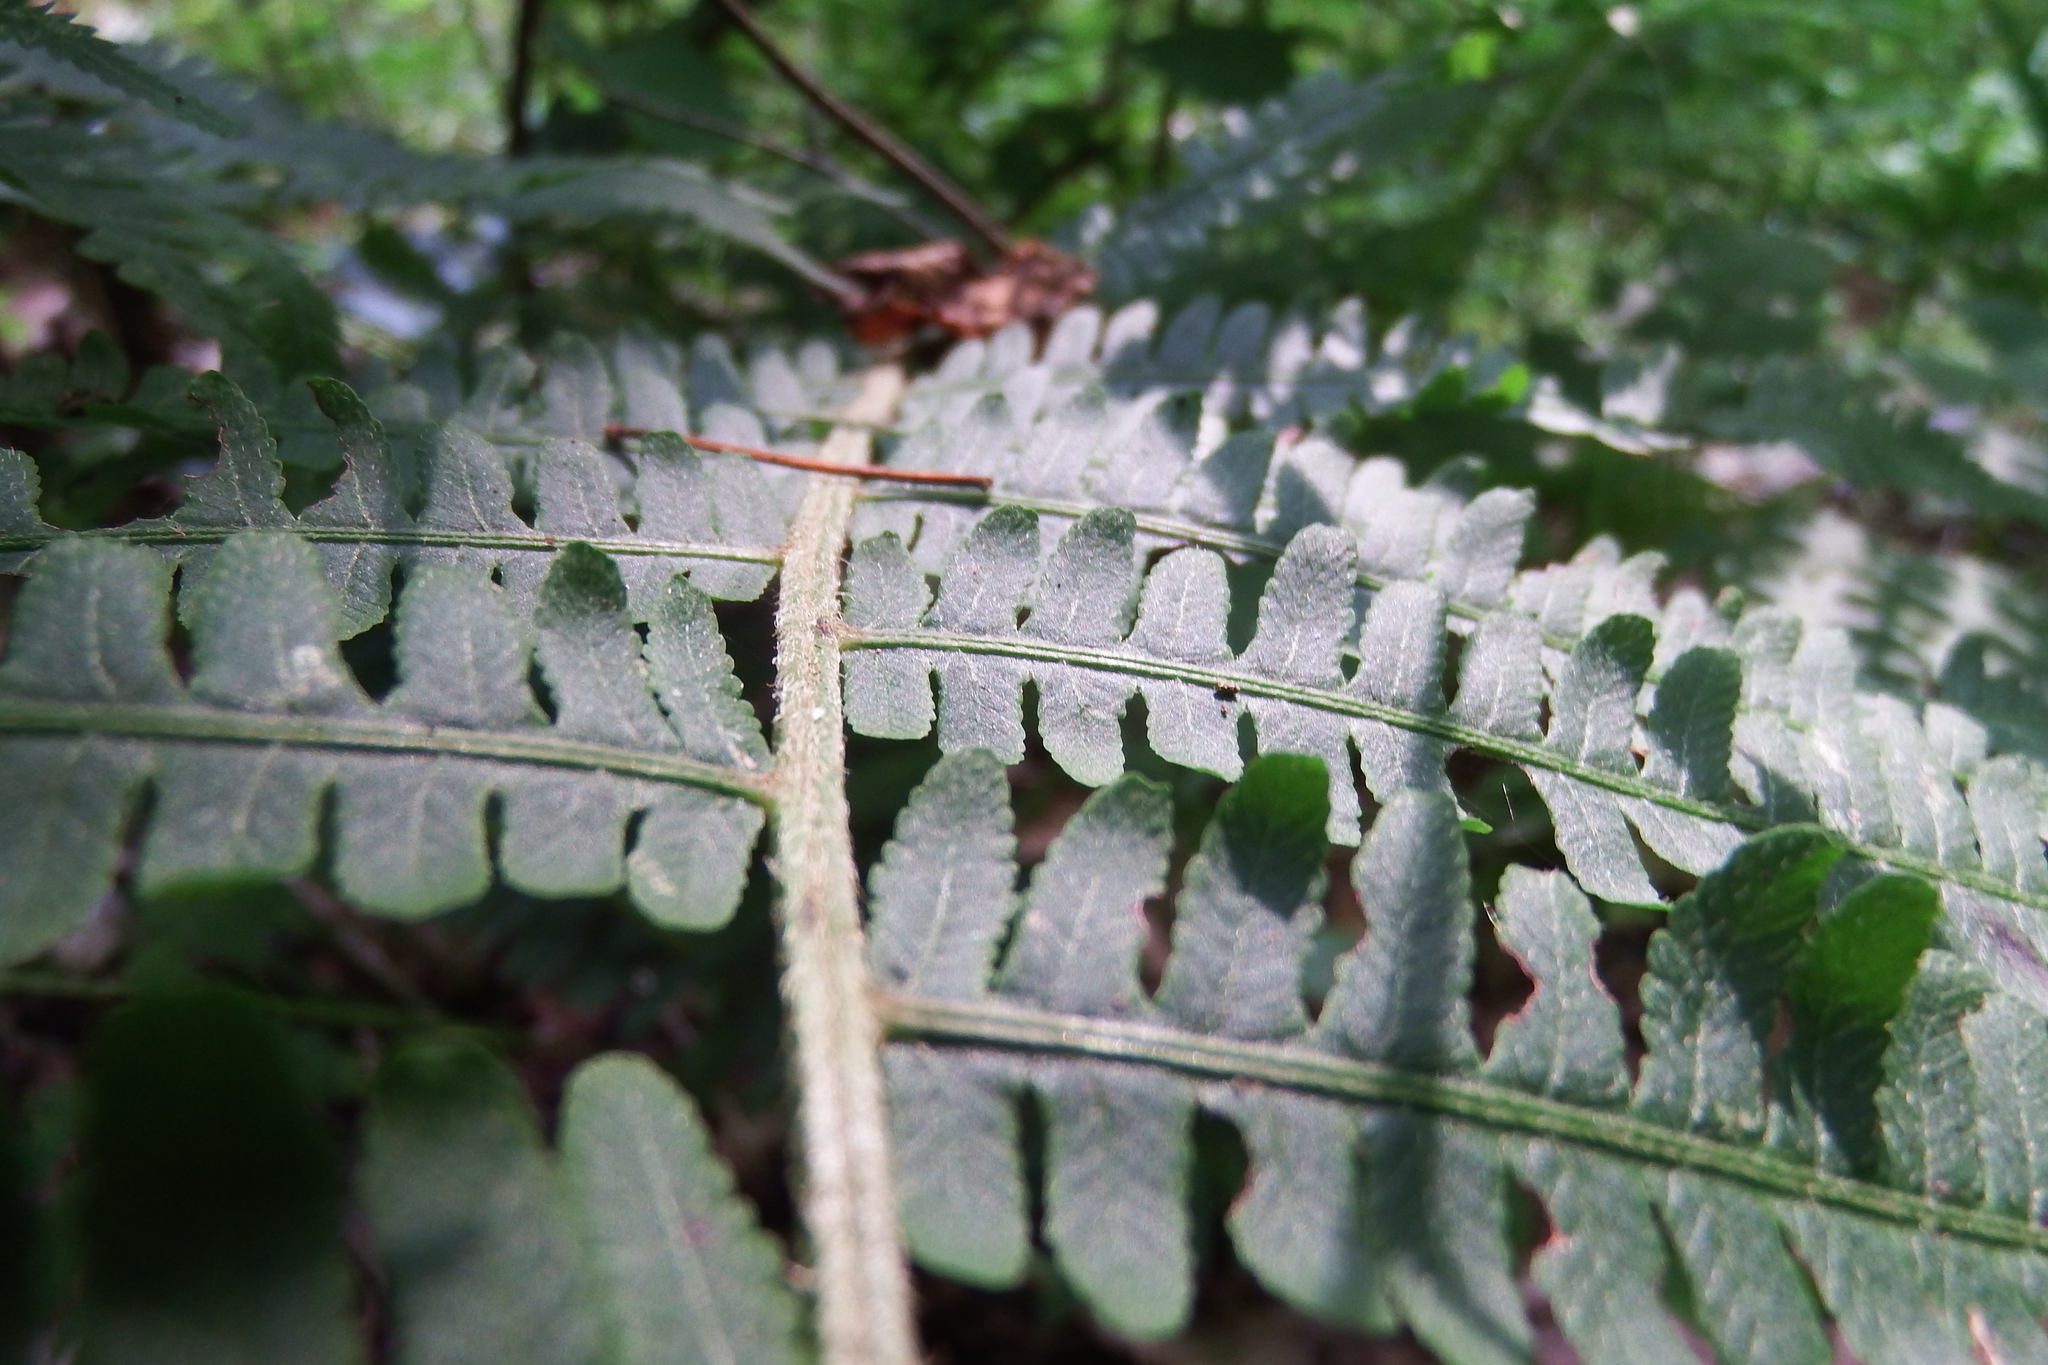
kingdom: Plantae
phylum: Tracheophyta
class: Polypodiopsida
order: Polypodiales
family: Athyriaceae
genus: Deparia
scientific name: Deparia acrostichoides
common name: Silver false spleenwort
